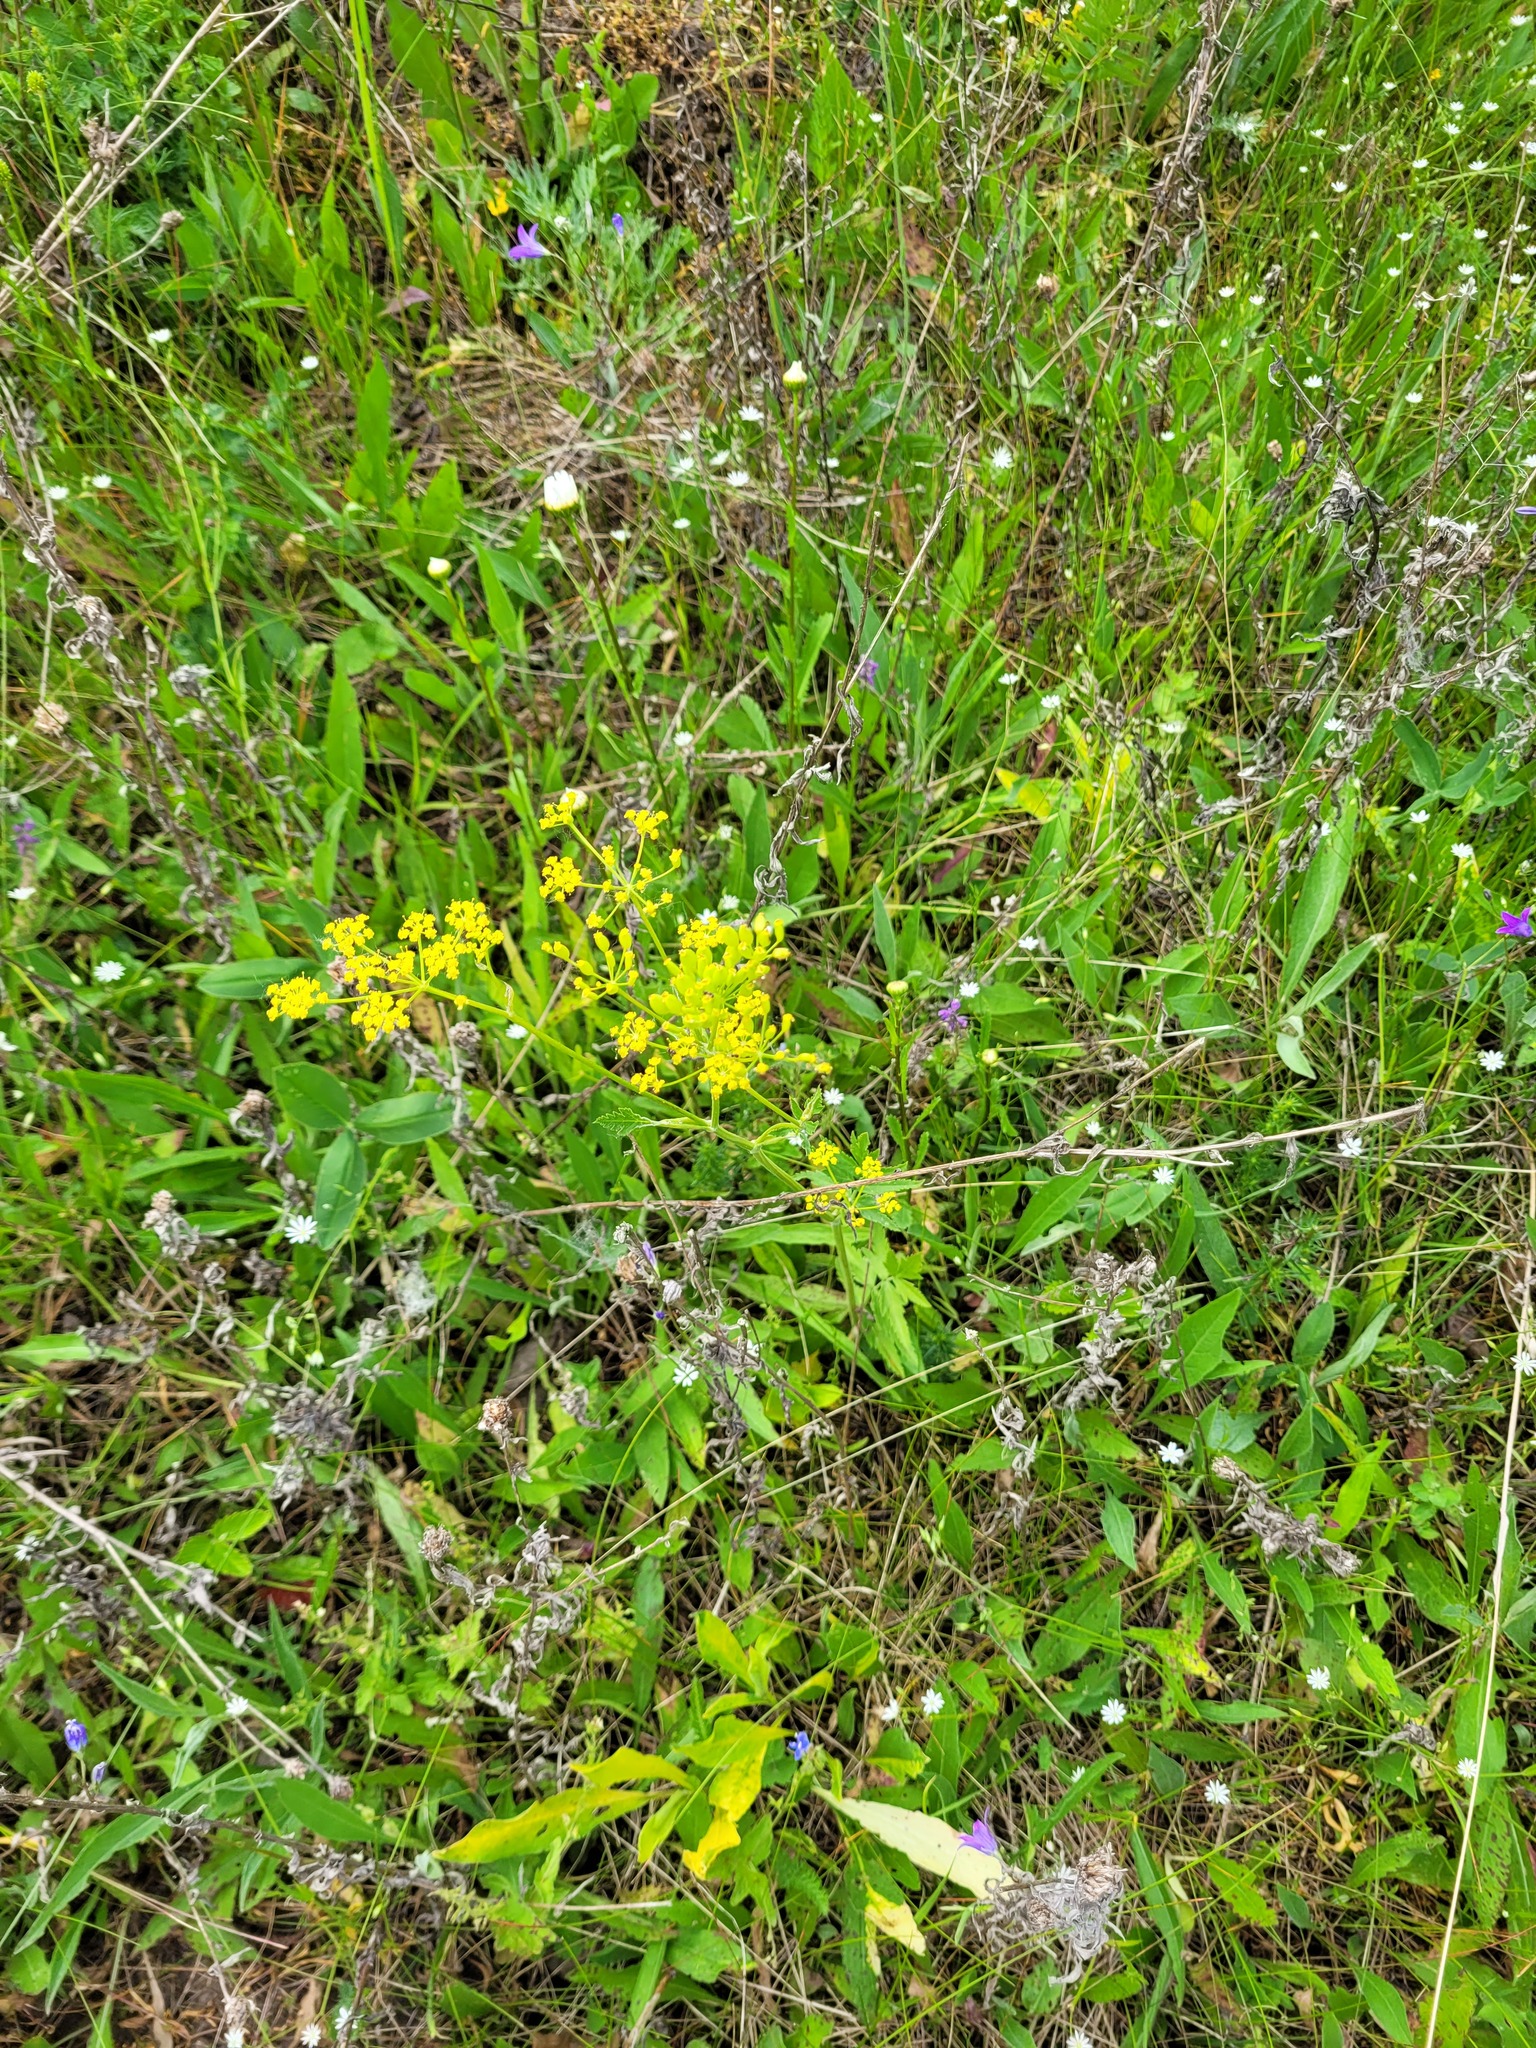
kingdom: Plantae
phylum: Tracheophyta
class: Magnoliopsida
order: Apiales
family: Apiaceae
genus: Pastinaca
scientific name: Pastinaca sativa
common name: Wild parsnip
